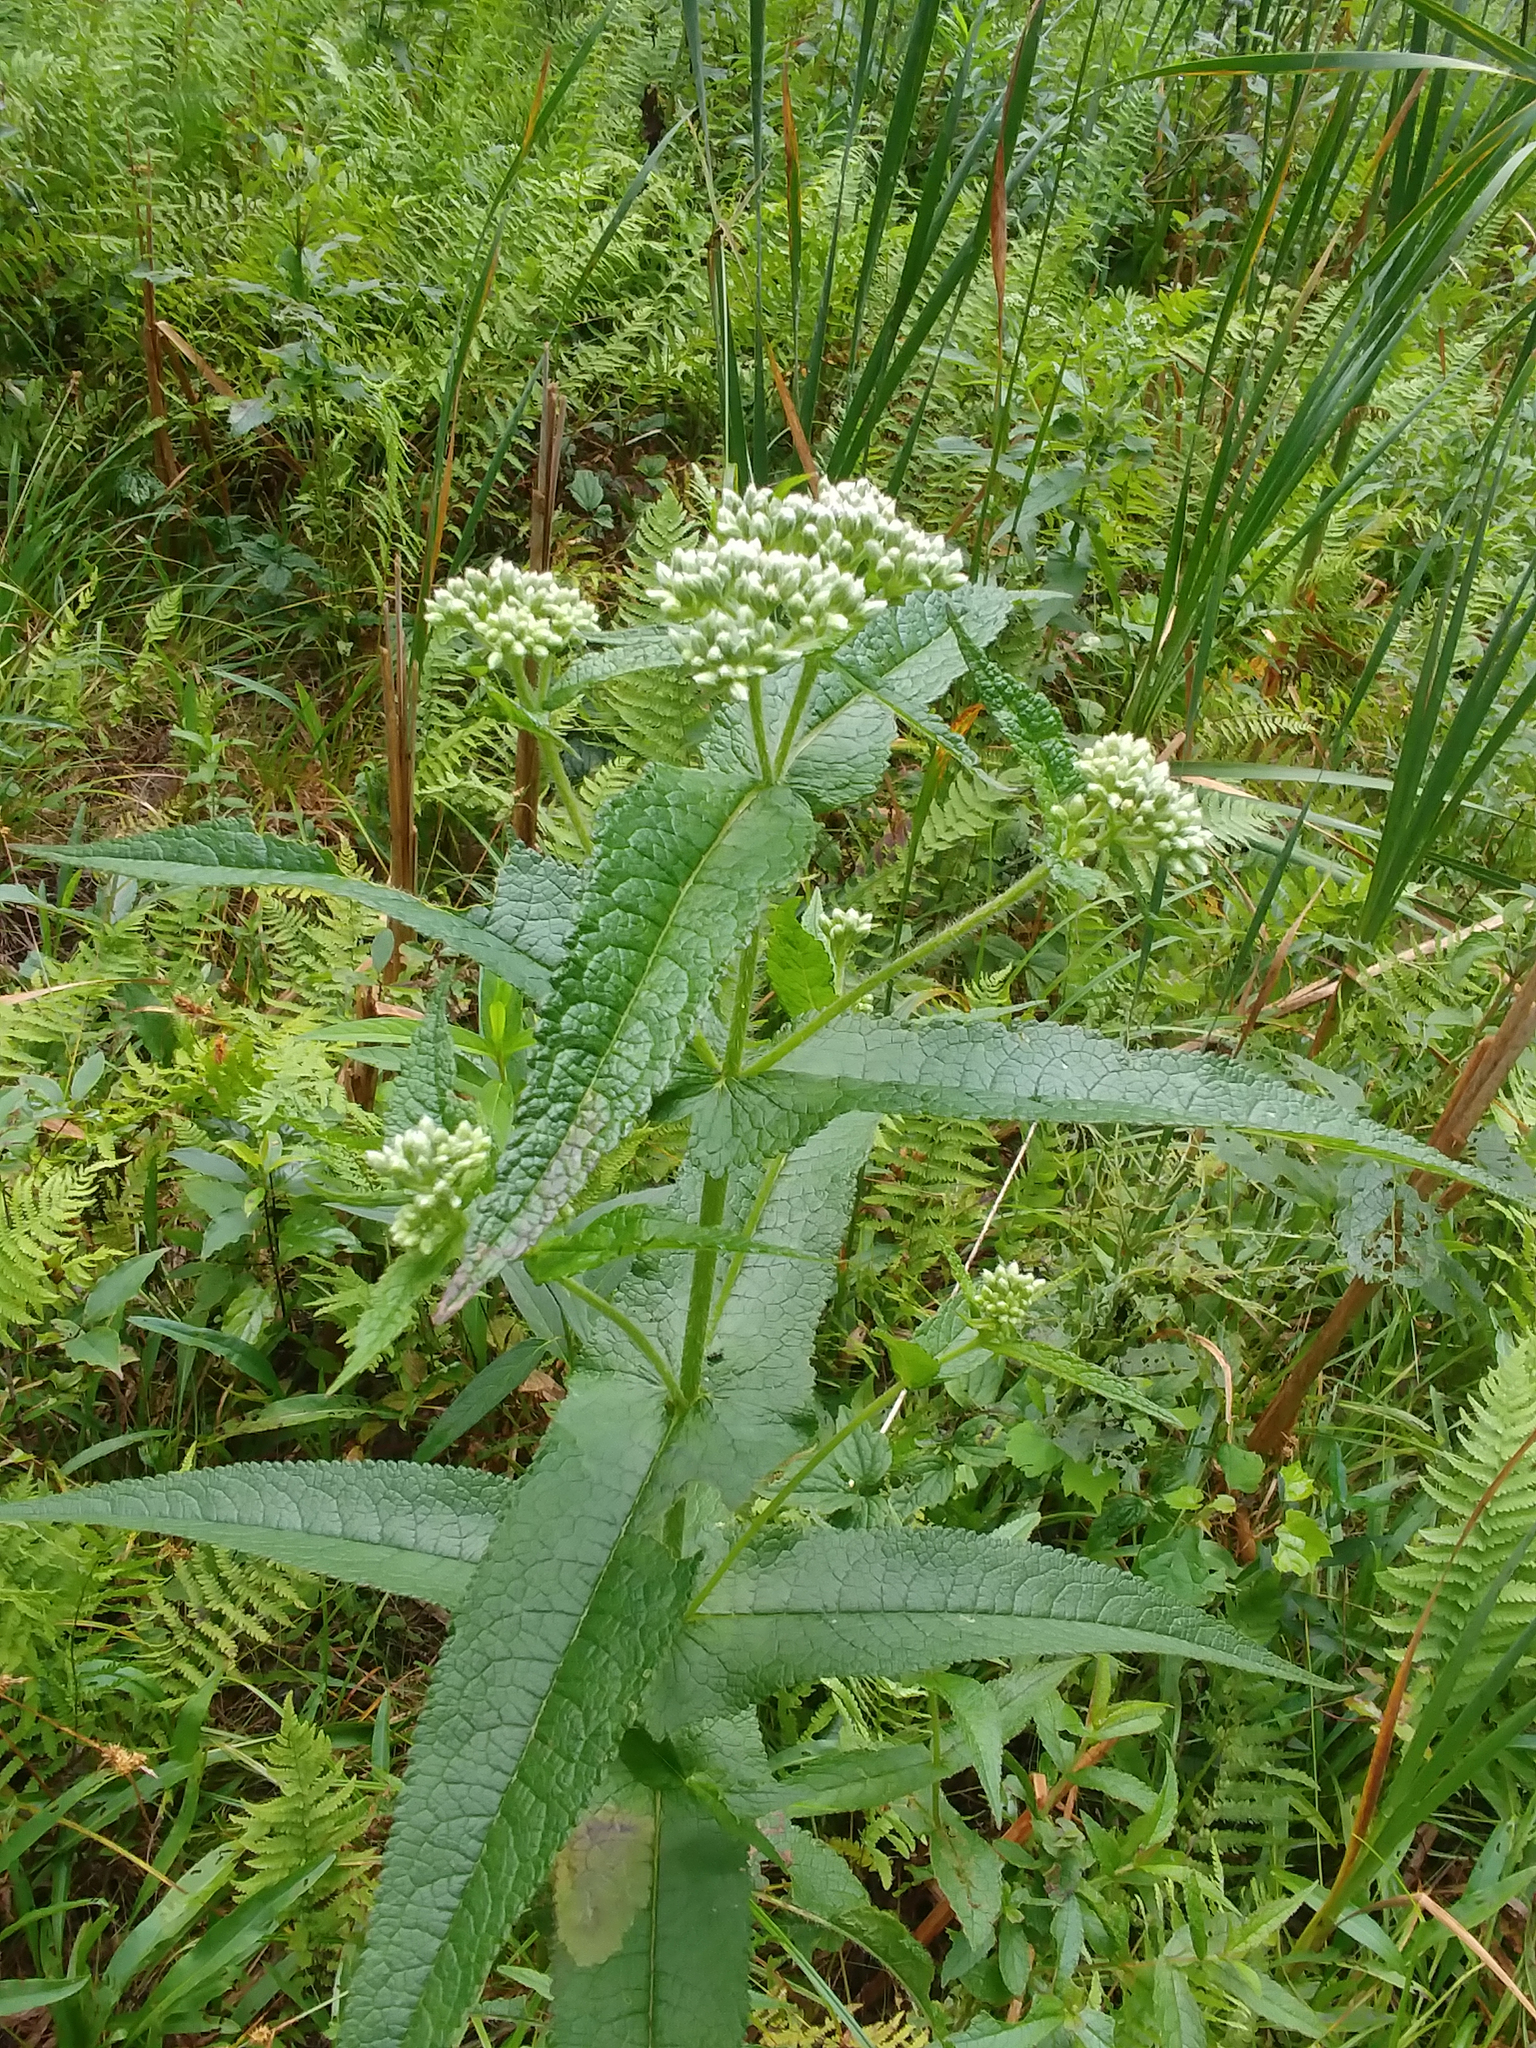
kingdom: Plantae
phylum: Tracheophyta
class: Magnoliopsida
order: Asterales
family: Asteraceae
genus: Eupatorium
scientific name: Eupatorium perfoliatum
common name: Boneset
